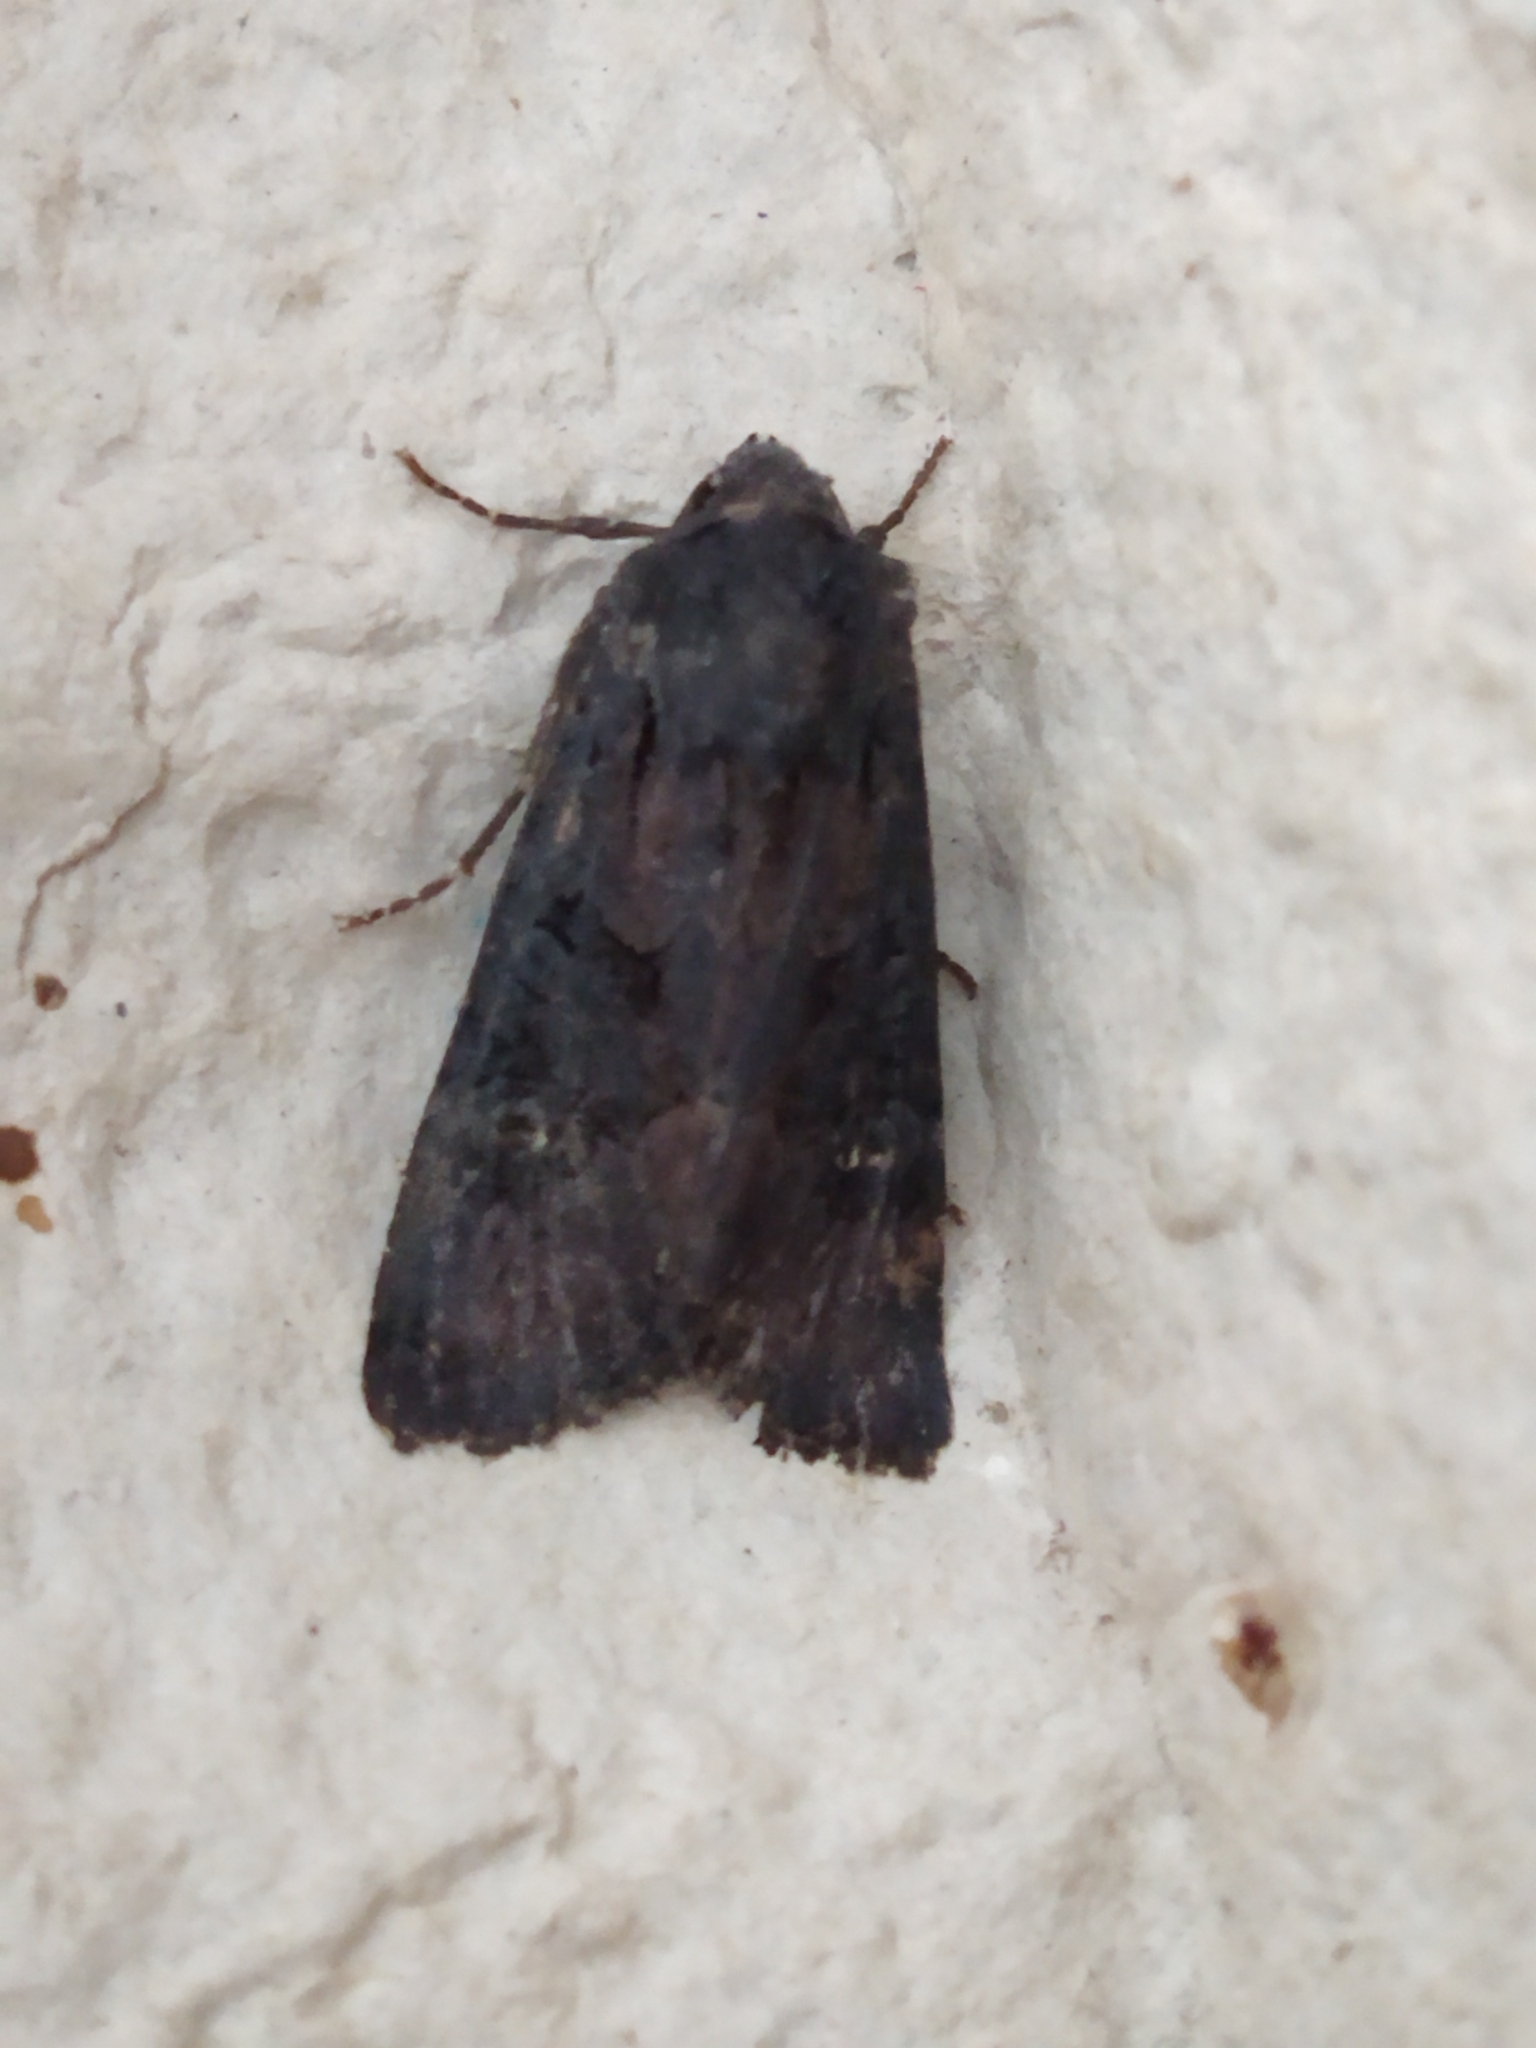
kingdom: Animalia
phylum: Arthropoda
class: Insecta
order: Lepidoptera
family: Noctuidae
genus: Aporophyla
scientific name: Aporophyla nigra
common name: Black rustic
